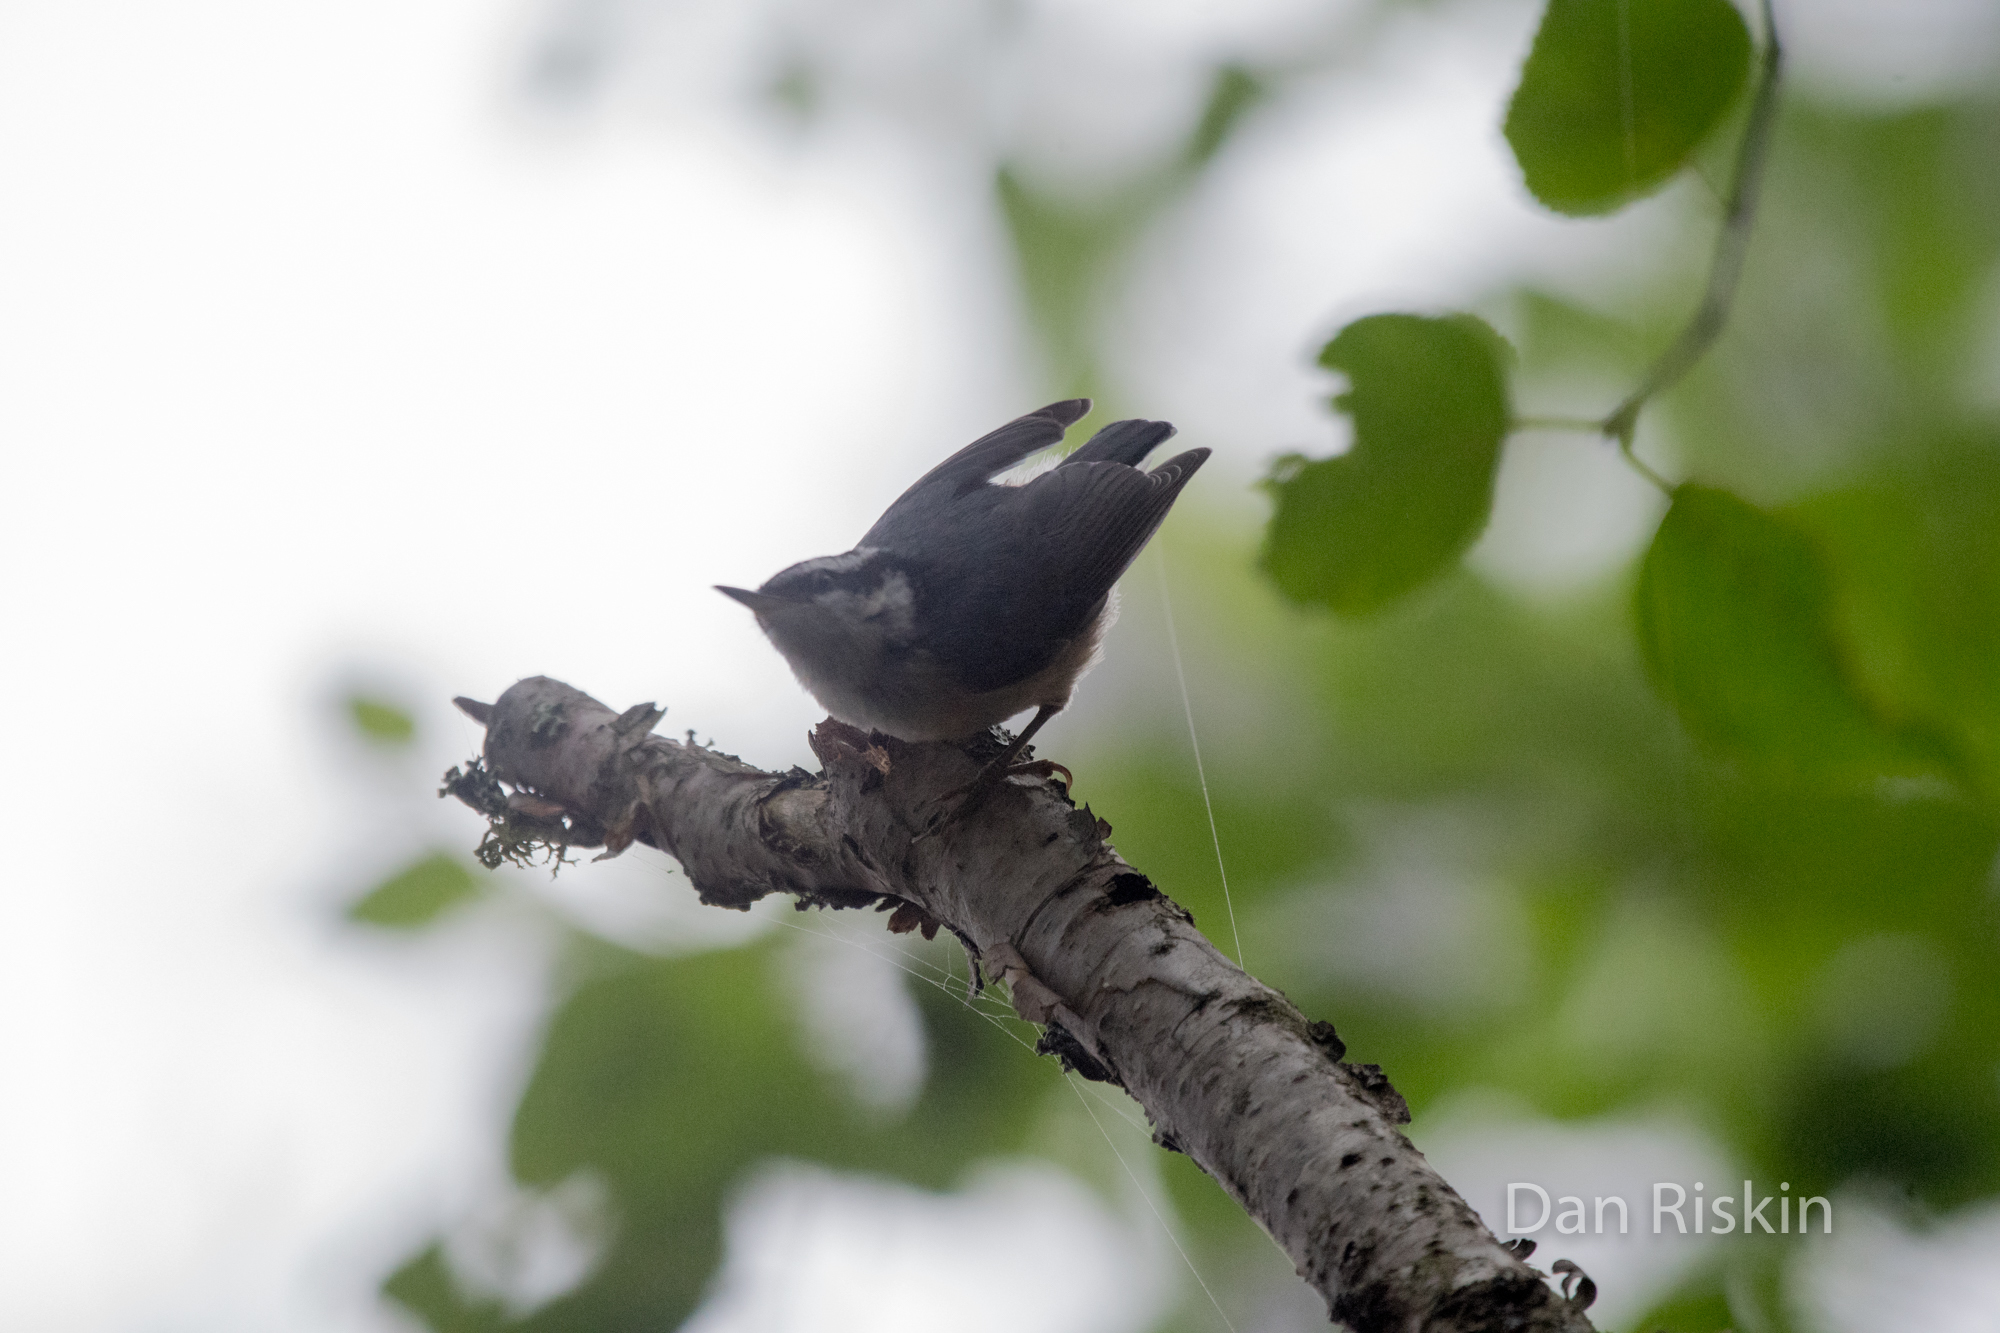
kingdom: Animalia
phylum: Chordata
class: Aves
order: Passeriformes
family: Sittidae
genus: Sitta
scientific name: Sitta canadensis
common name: Red-breasted nuthatch
